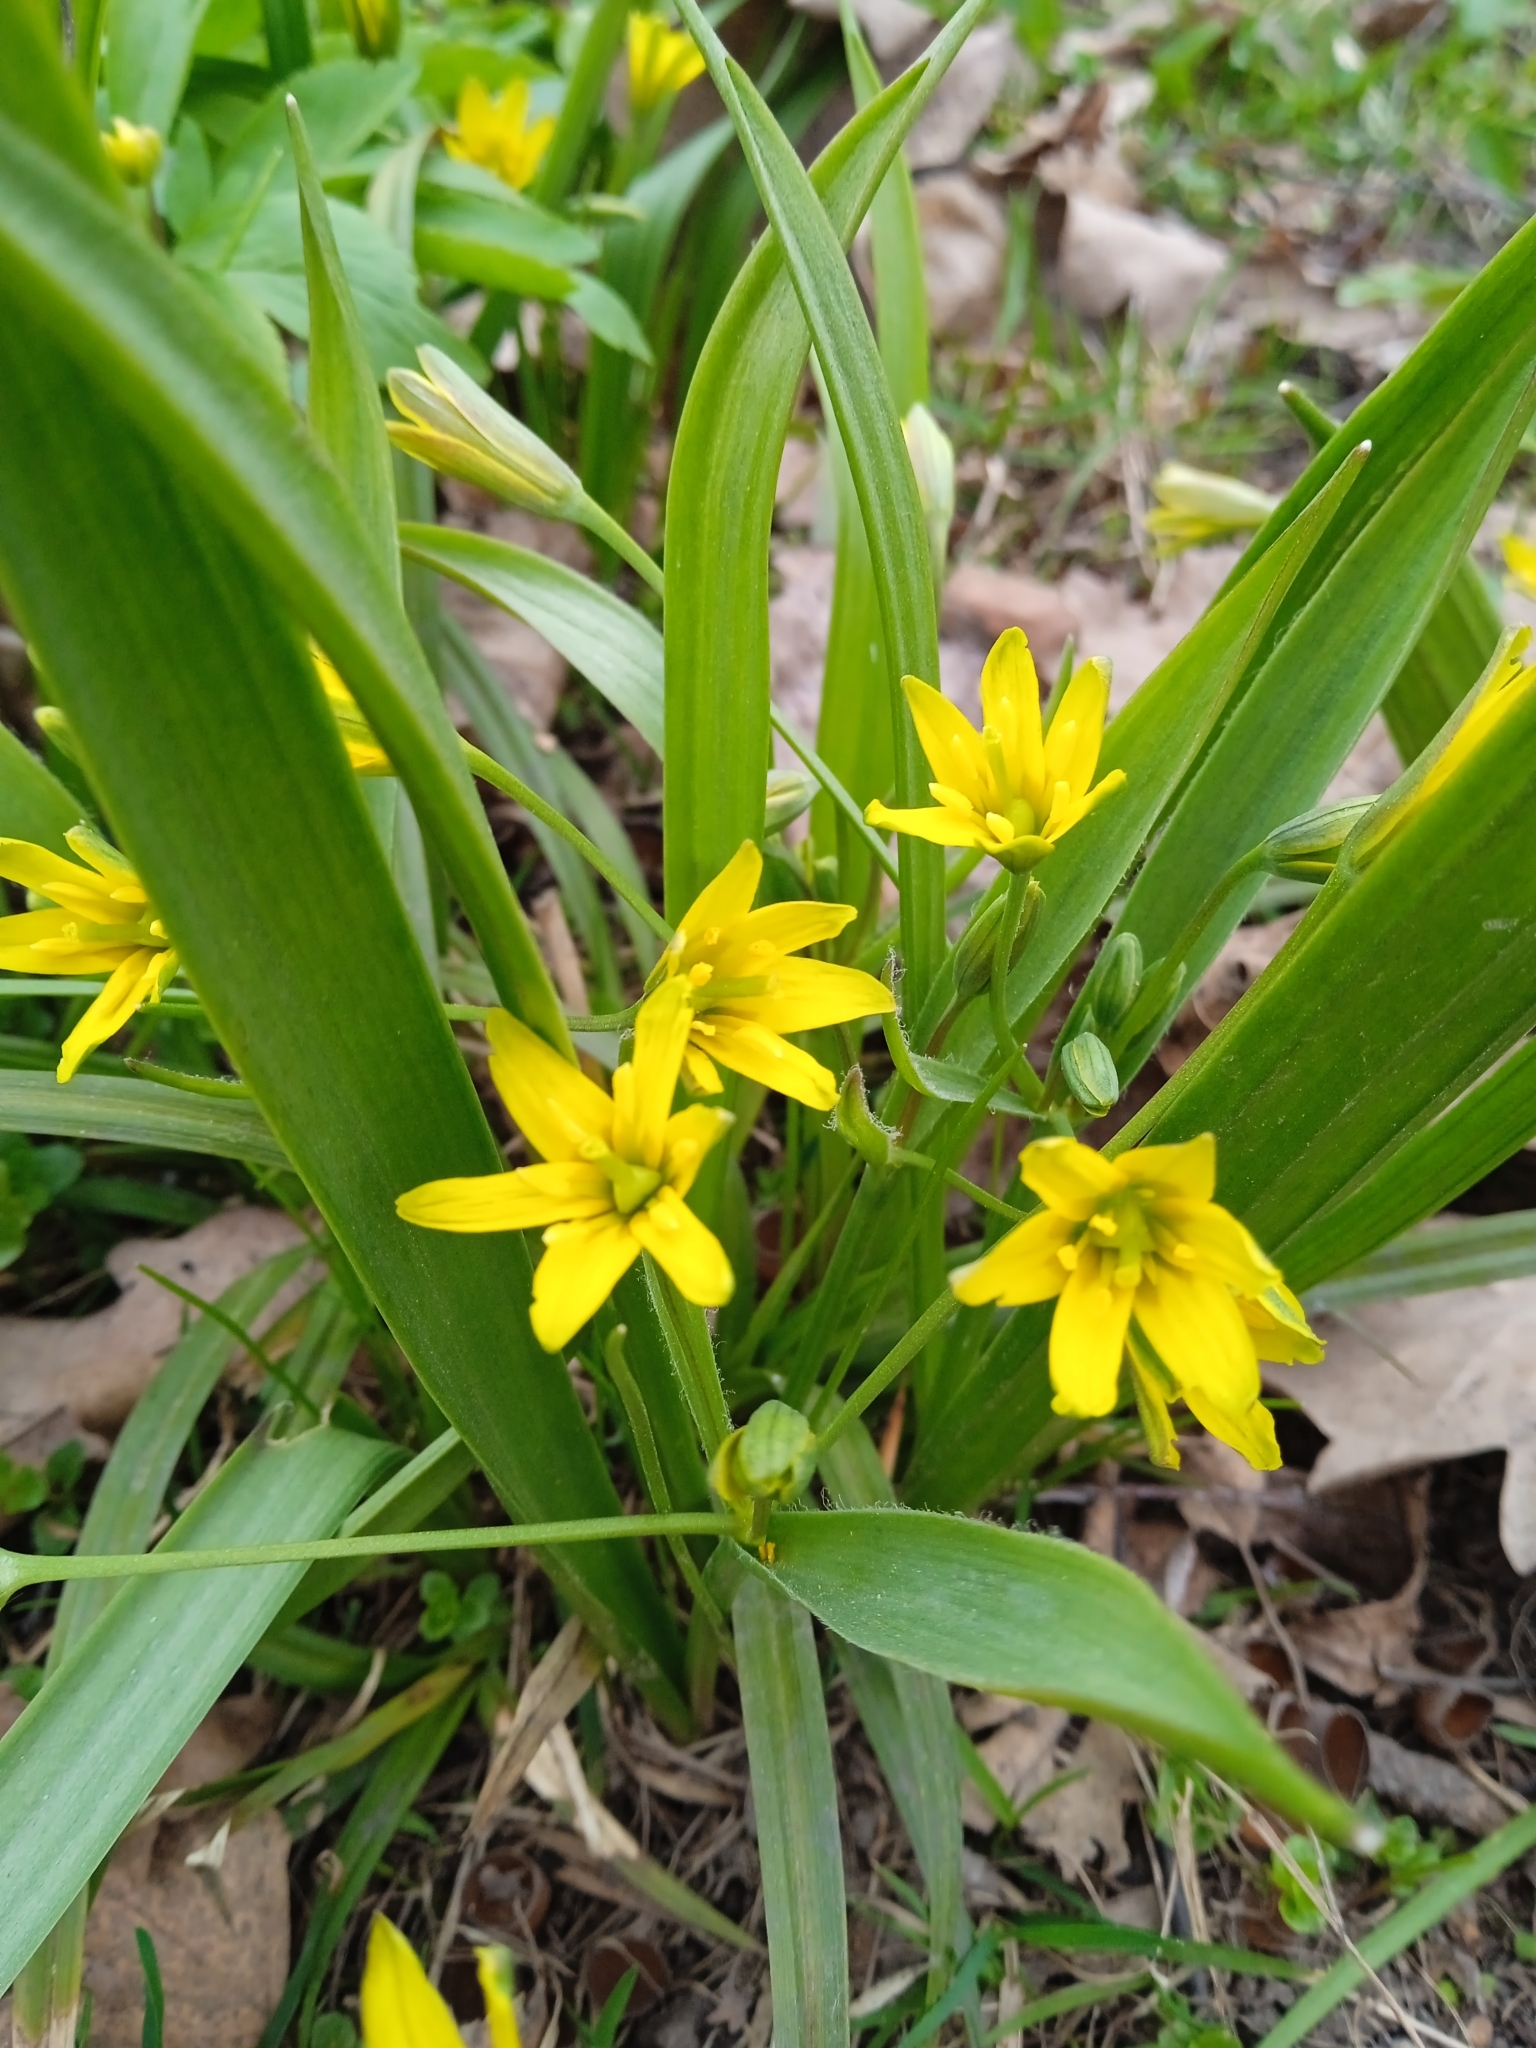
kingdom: Plantae
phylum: Tracheophyta
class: Liliopsida
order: Liliales
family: Liliaceae
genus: Gagea
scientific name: Gagea lutea
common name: Yellow star-of-bethlehem
